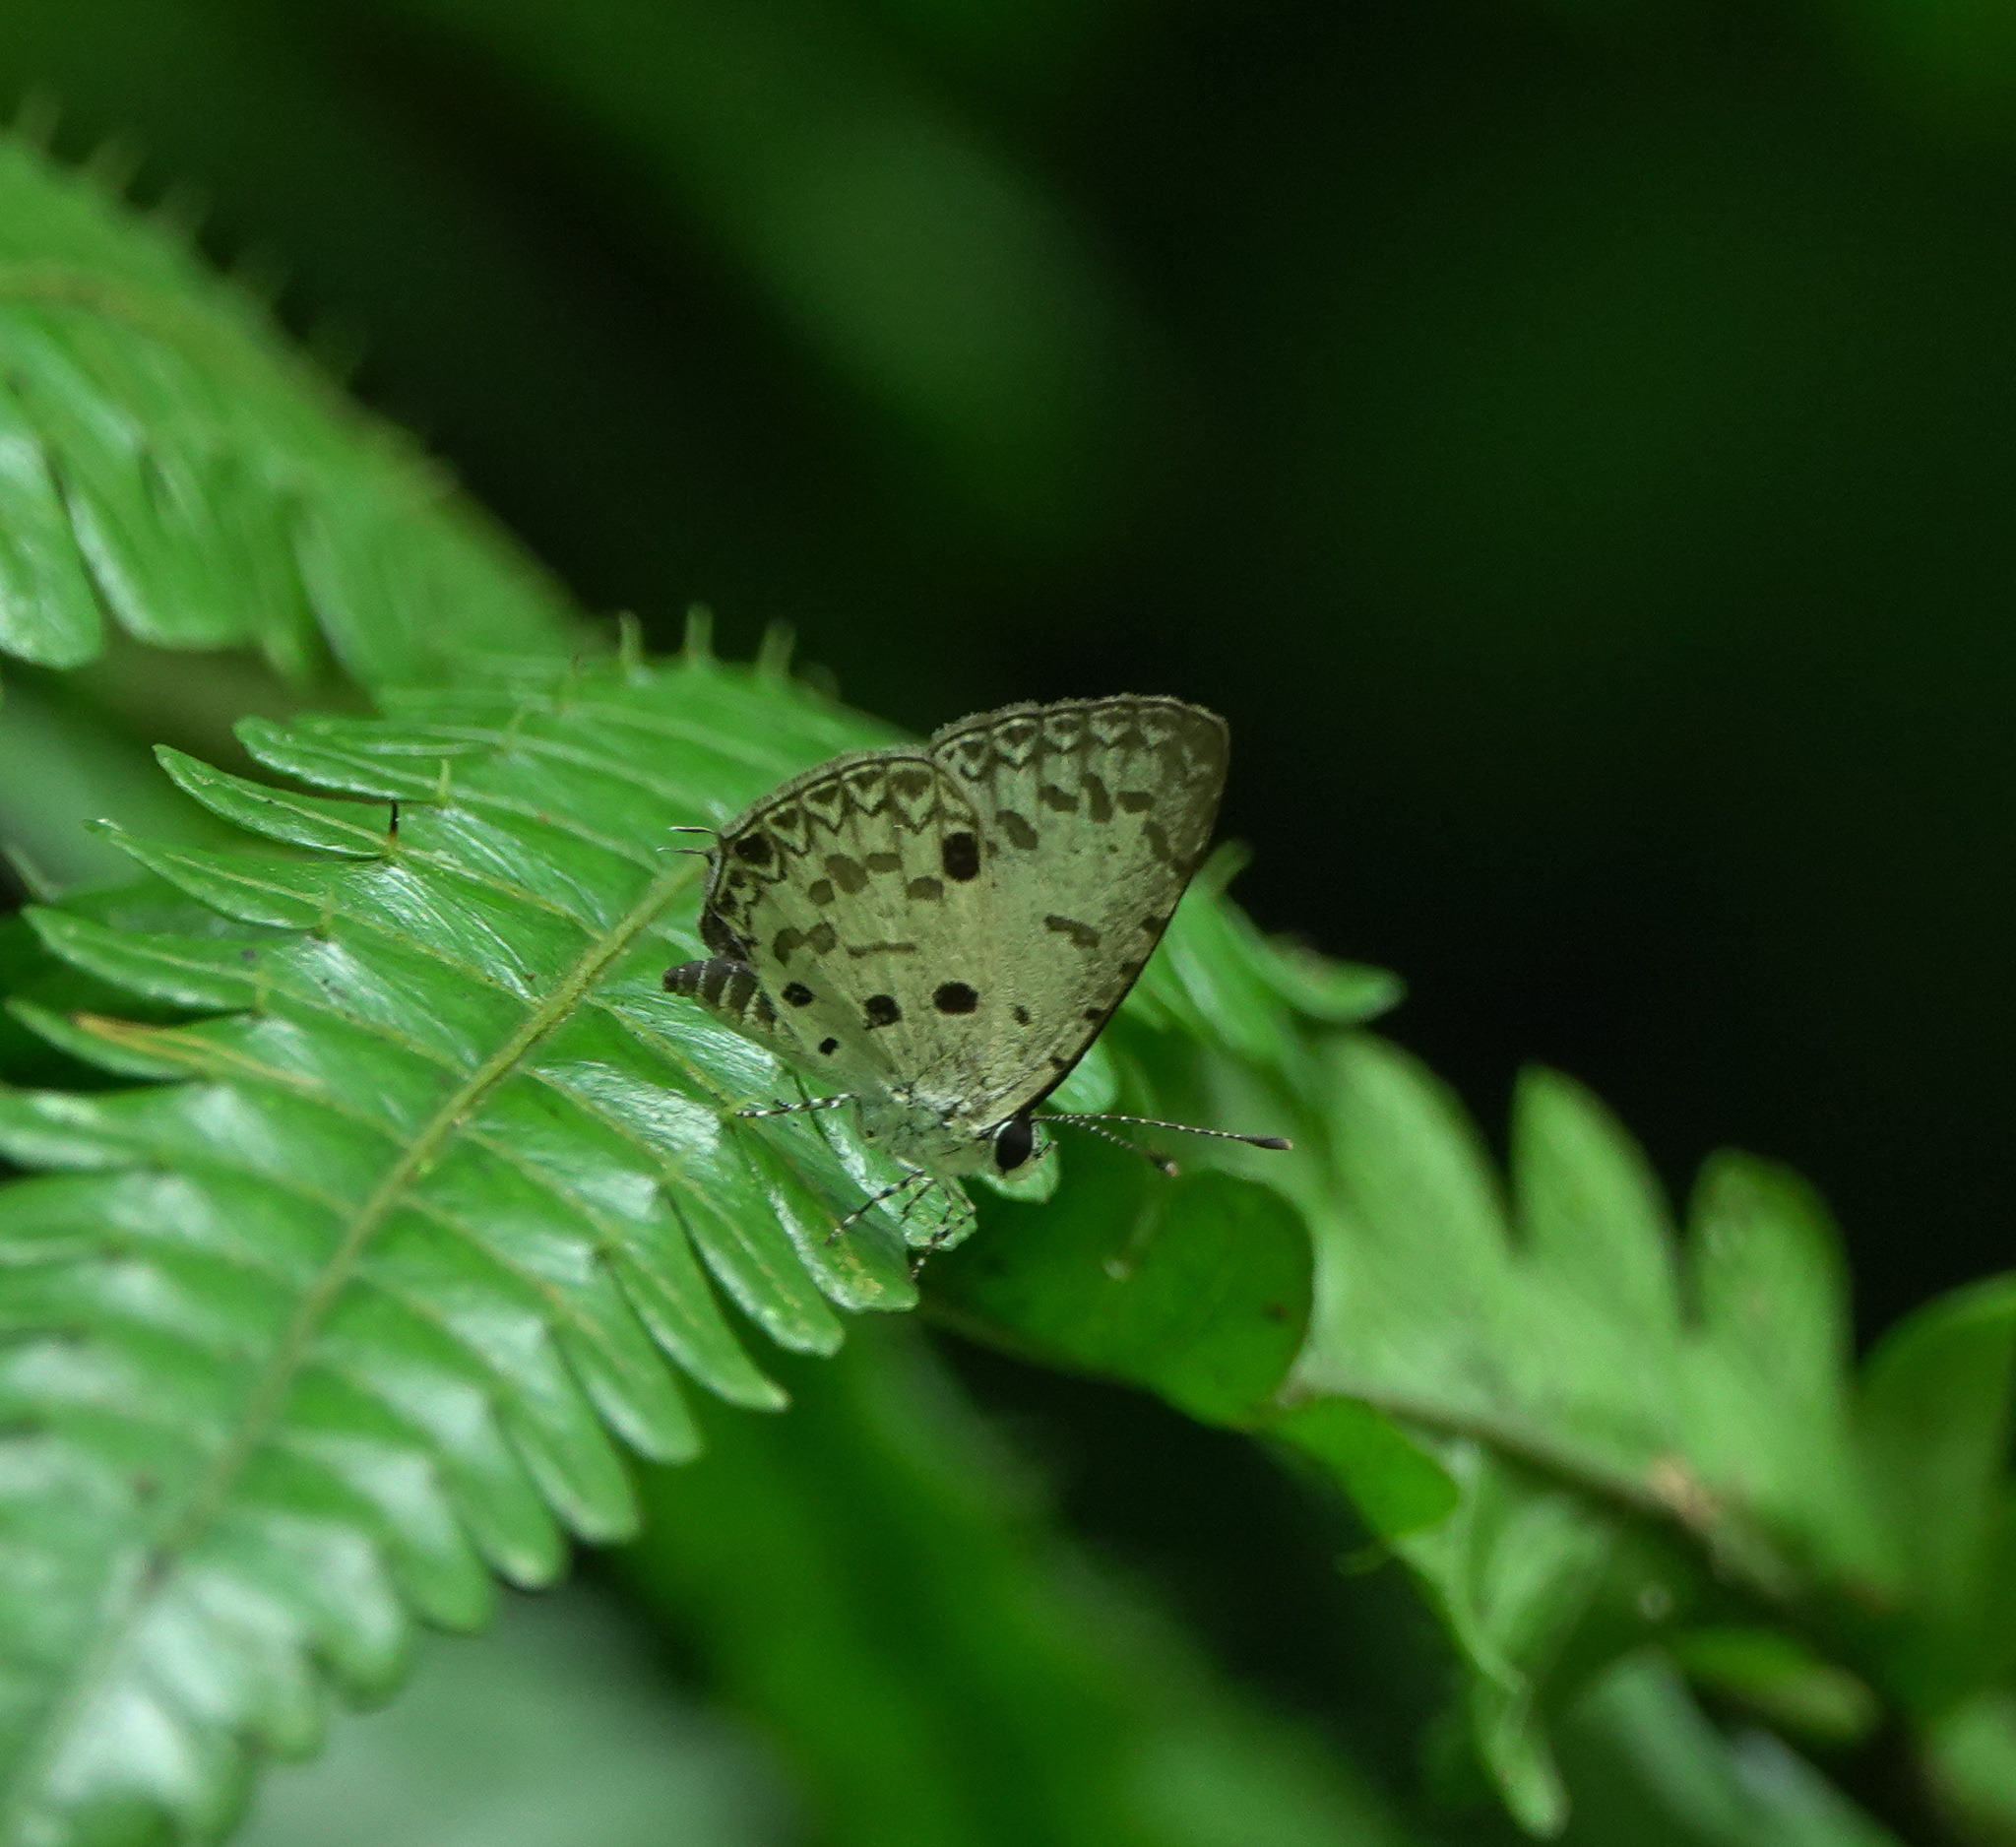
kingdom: Animalia
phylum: Arthropoda
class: Insecta
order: Lepidoptera
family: Lycaenidae
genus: Megisba
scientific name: Megisba malaya
